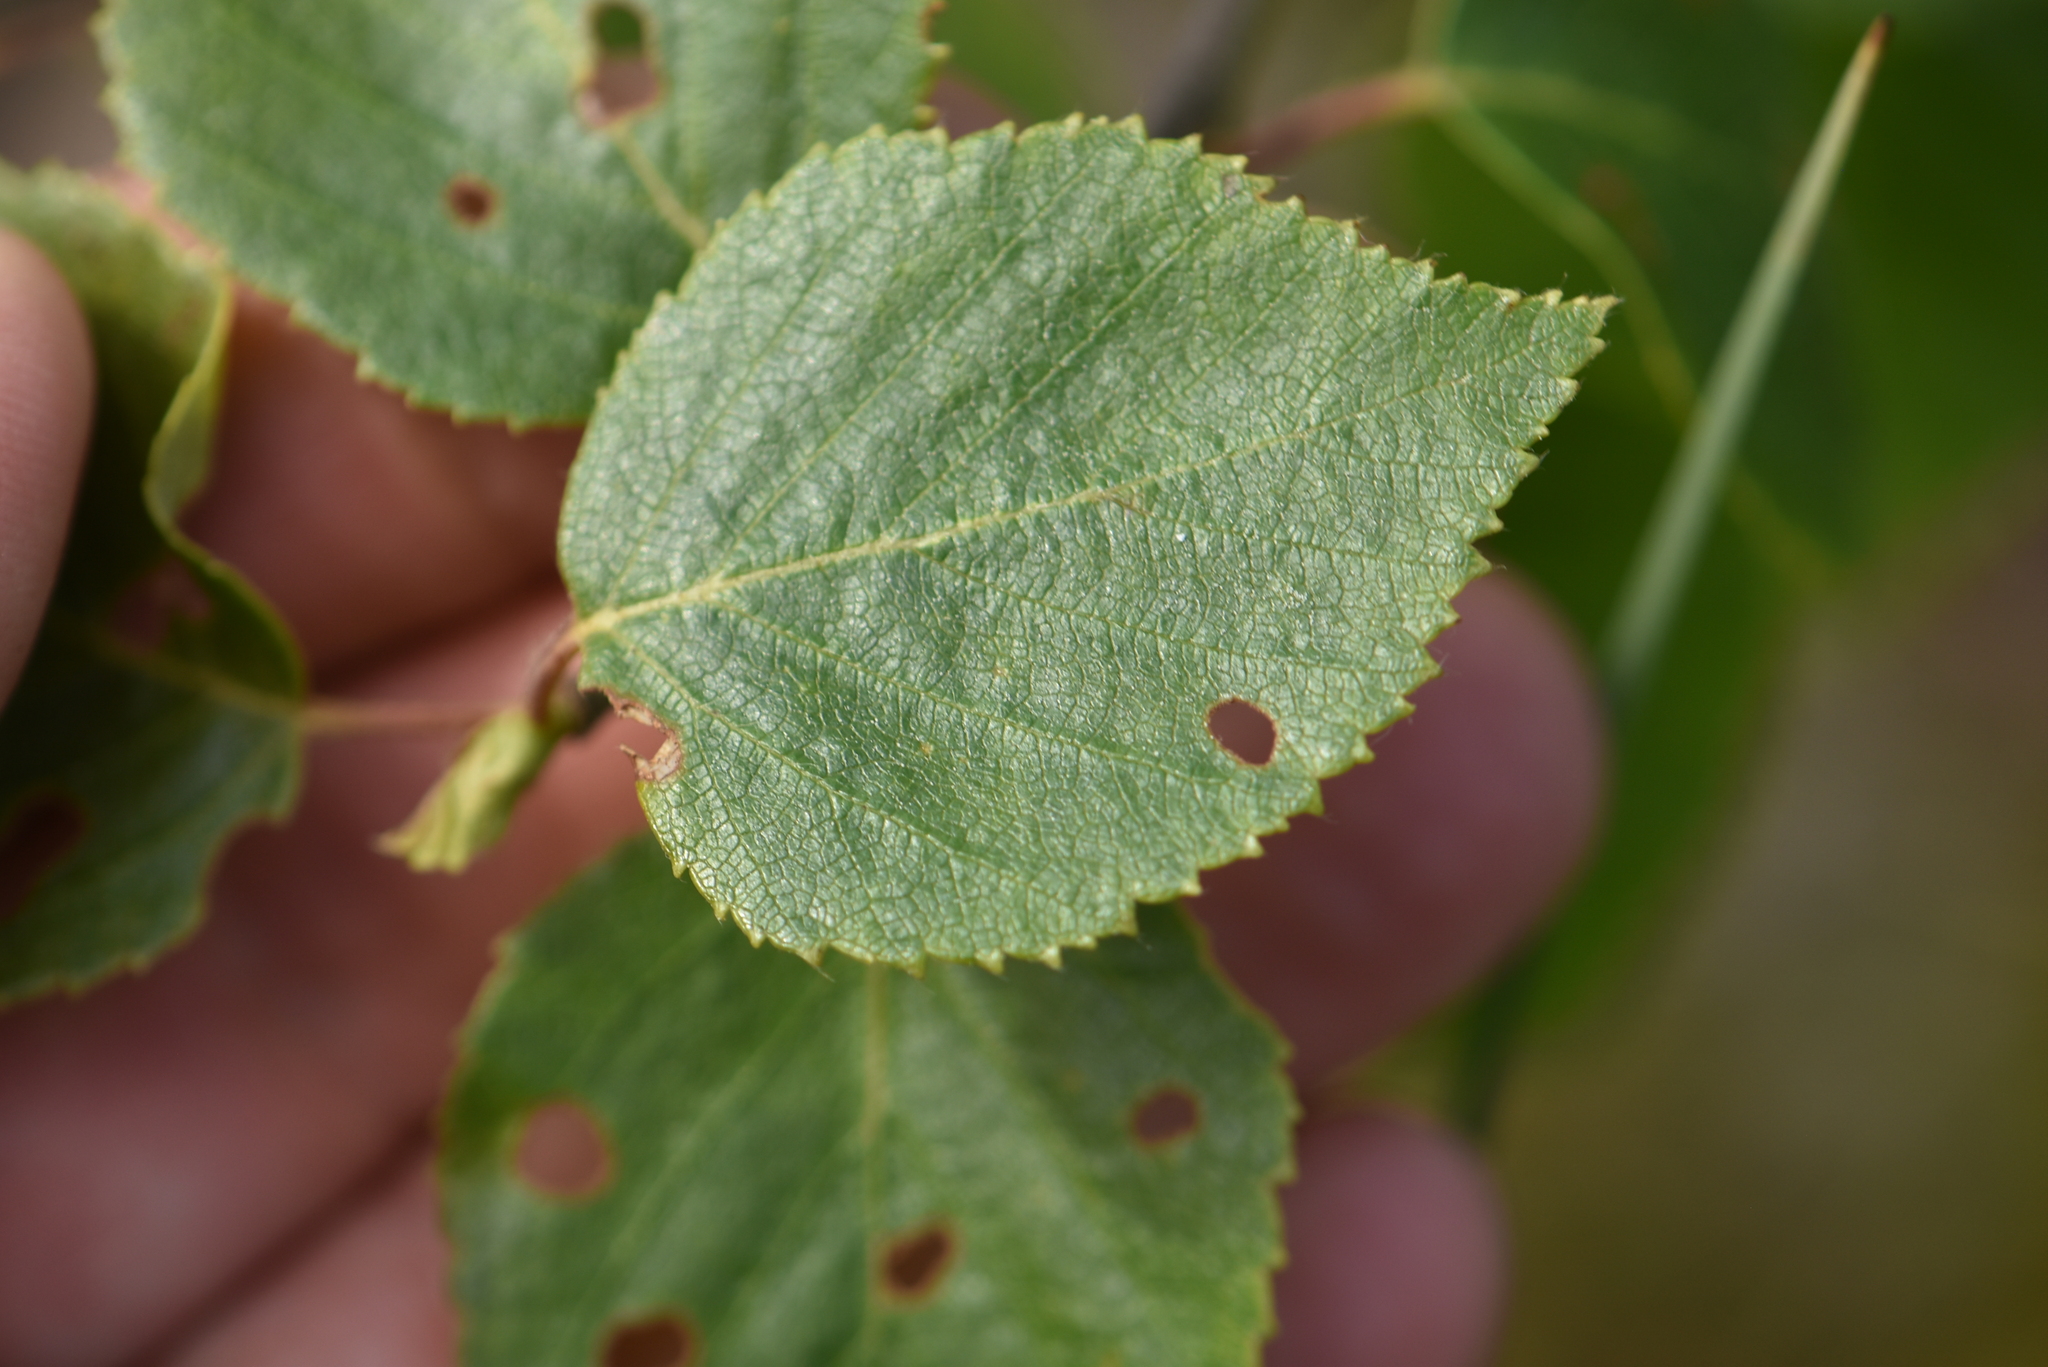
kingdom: Plantae
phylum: Tracheophyta
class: Magnoliopsida
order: Fagales
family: Betulaceae
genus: Betula
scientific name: Betula pubescens
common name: Downy birch
